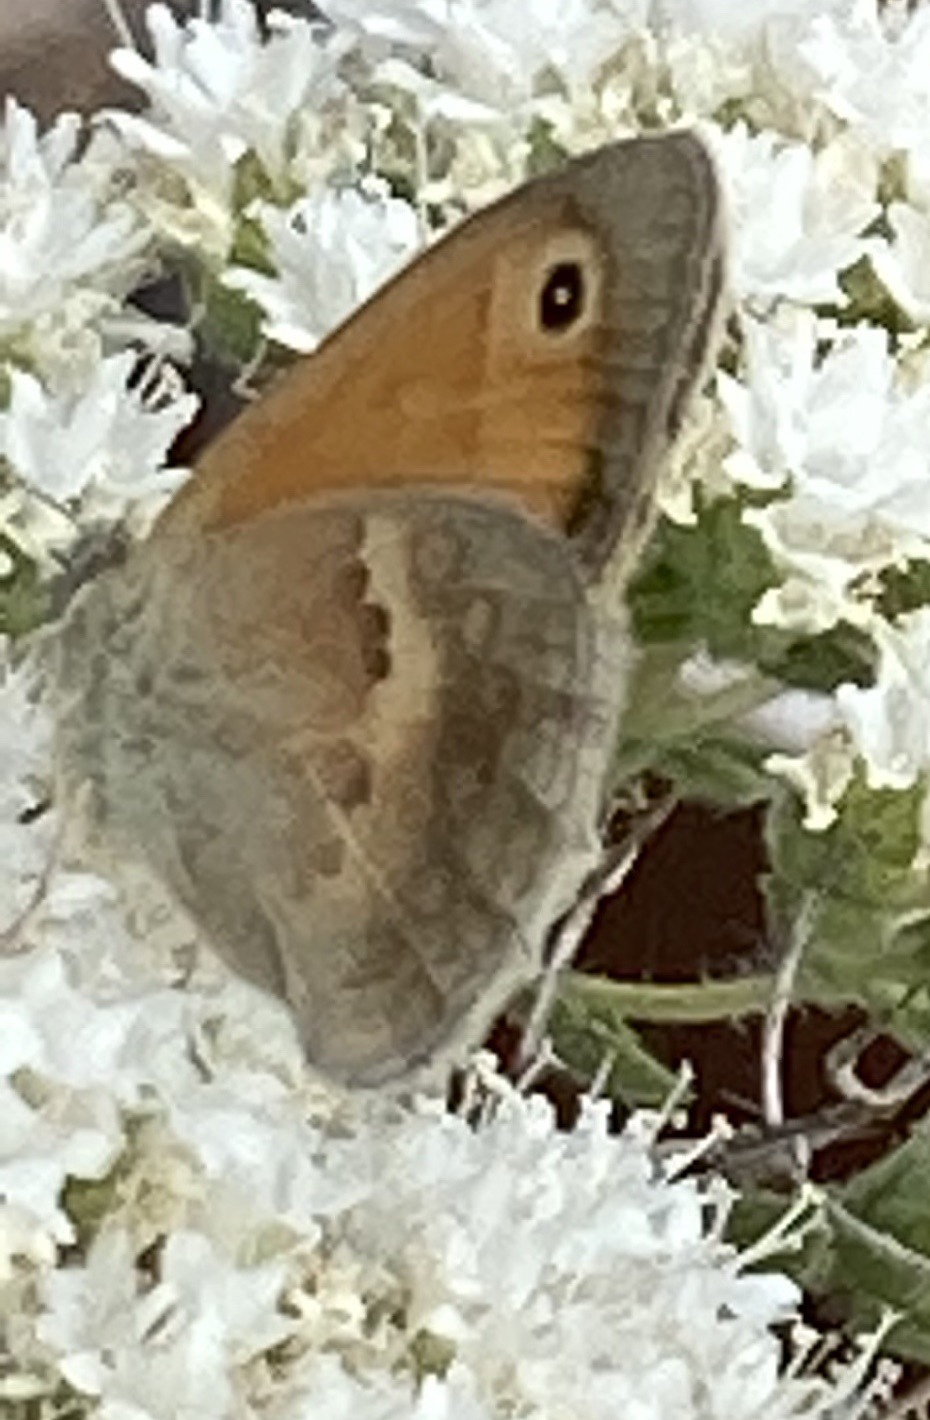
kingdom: Animalia
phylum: Arthropoda
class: Insecta
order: Lepidoptera
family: Nymphalidae
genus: Coenonympha
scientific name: Coenonympha pamphilus
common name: Small heath
